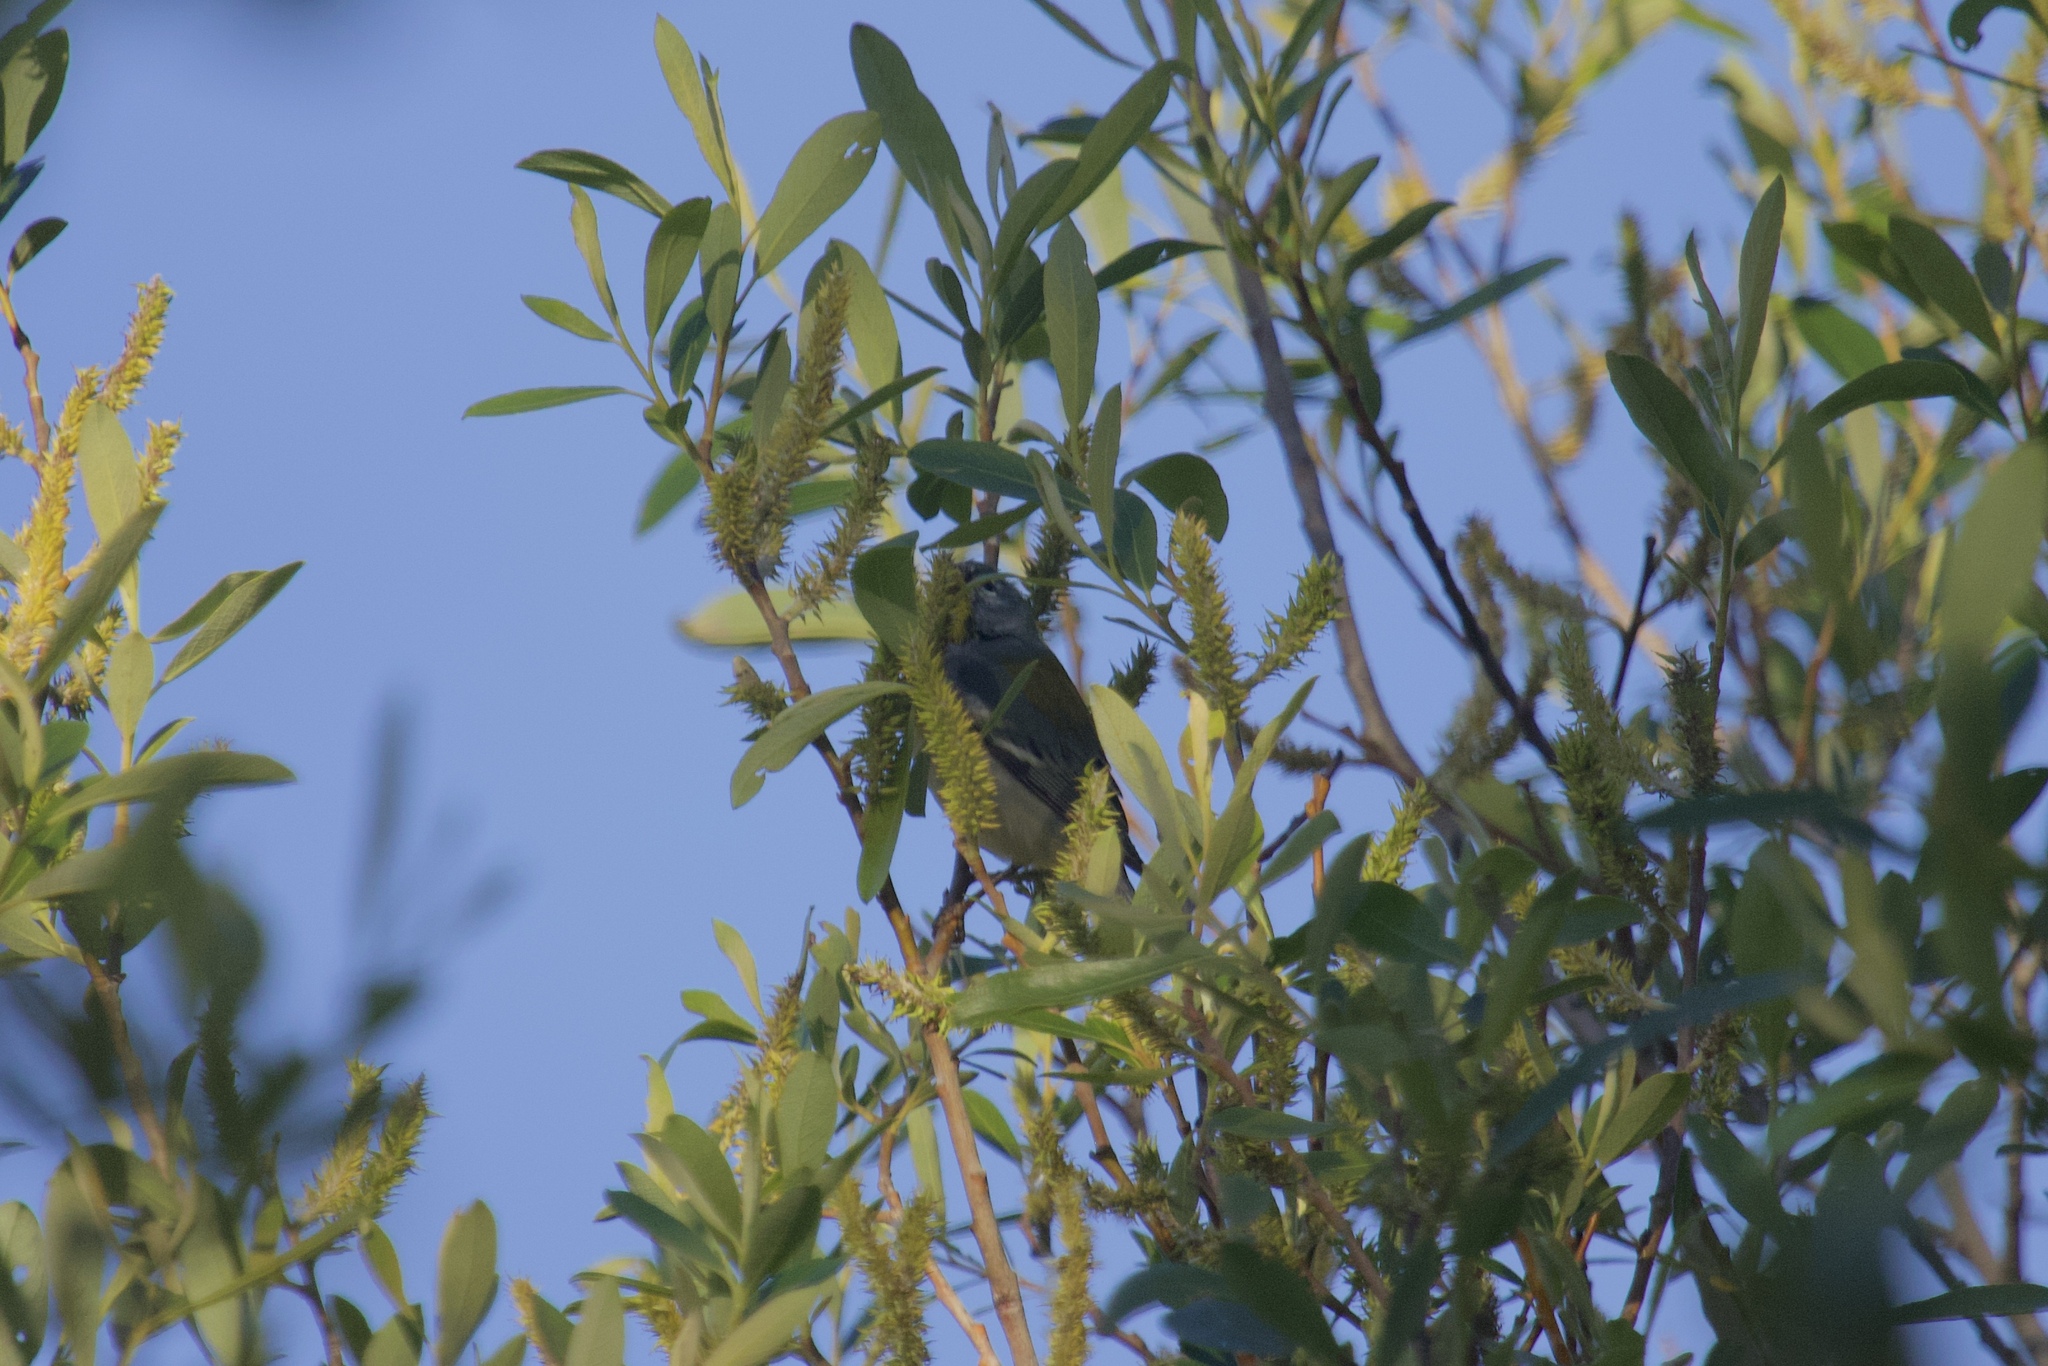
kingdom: Animalia
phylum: Chordata
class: Aves
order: Passeriformes
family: Parulidae
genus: Setophaga
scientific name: Setophaga americana
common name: Northern parula
